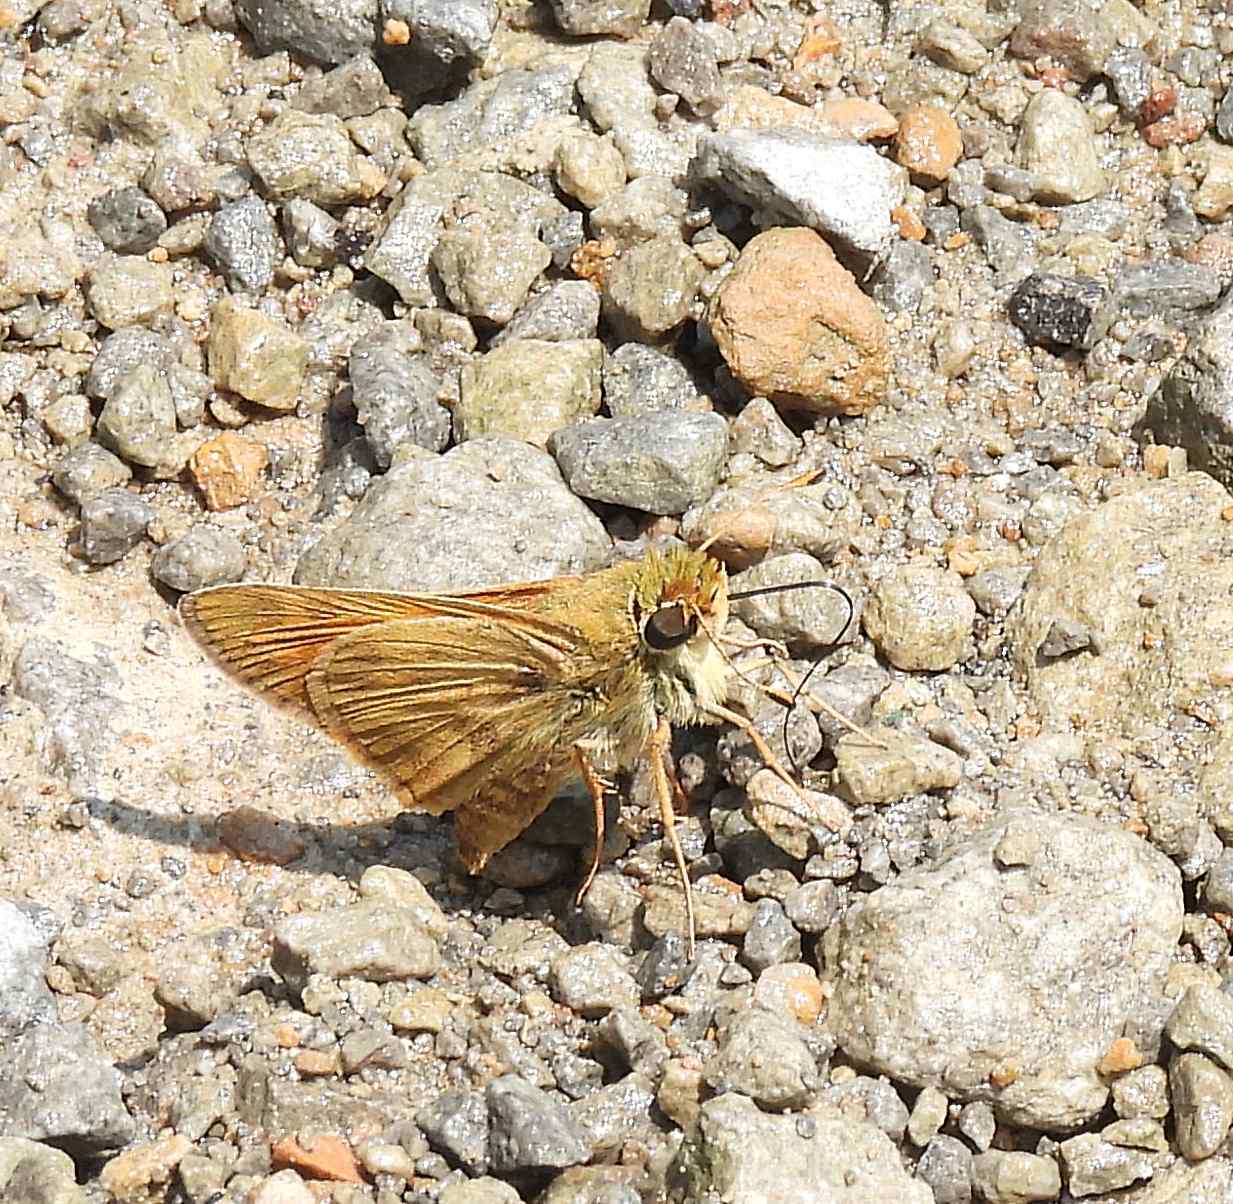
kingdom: Animalia
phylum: Arthropoda
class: Insecta
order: Lepidoptera
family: Hesperiidae
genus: Atalopedes
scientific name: Atalopedes
